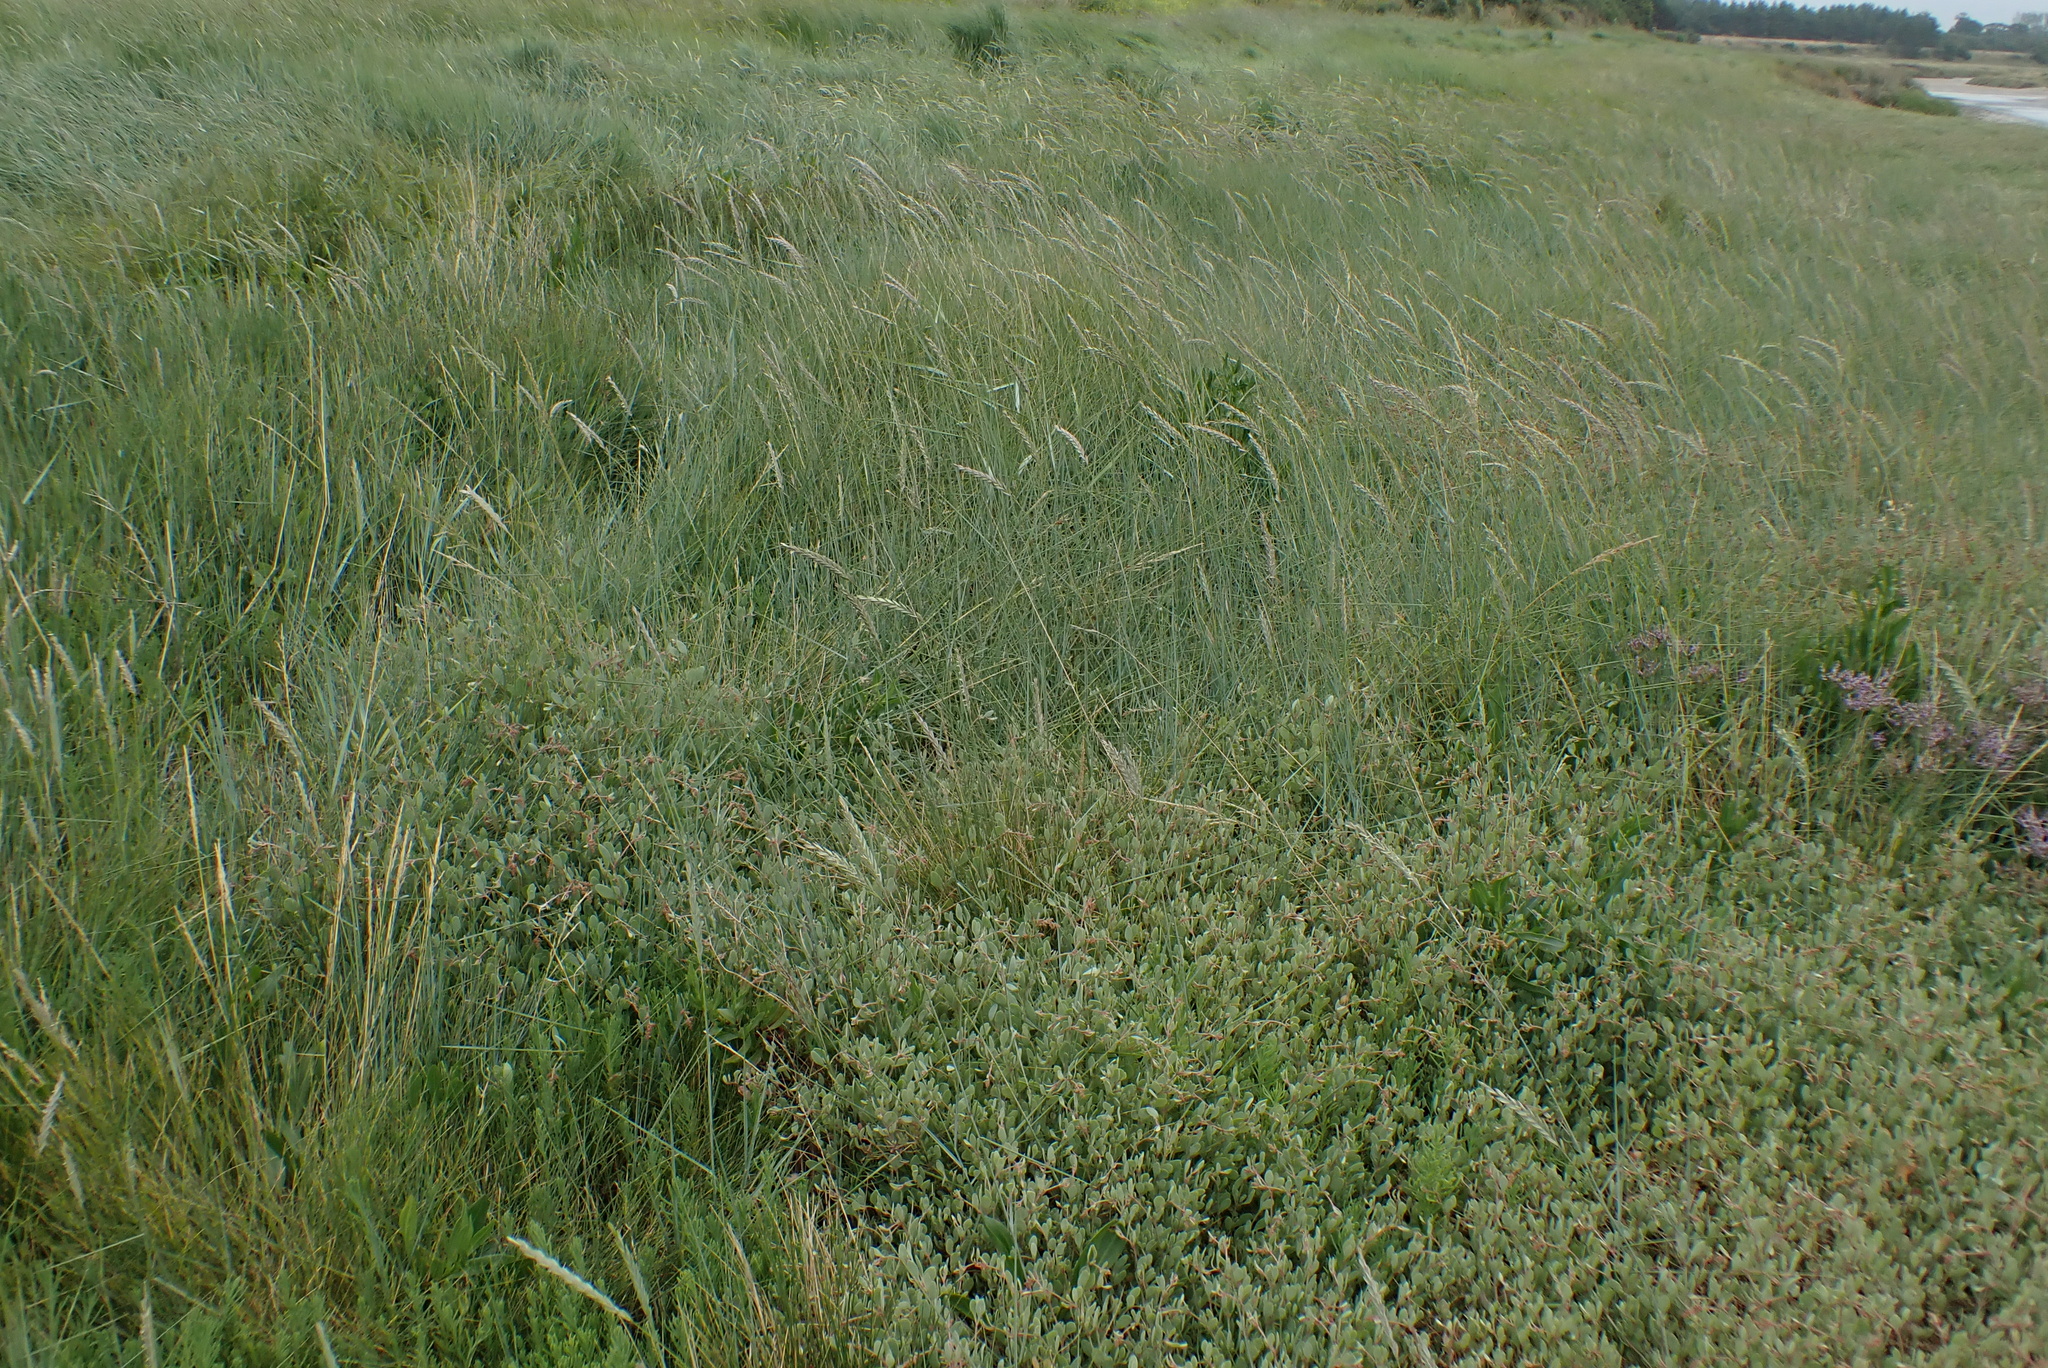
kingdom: Plantae
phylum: Tracheophyta
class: Liliopsida
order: Poales
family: Poaceae
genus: Elymus
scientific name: Elymus athericus
